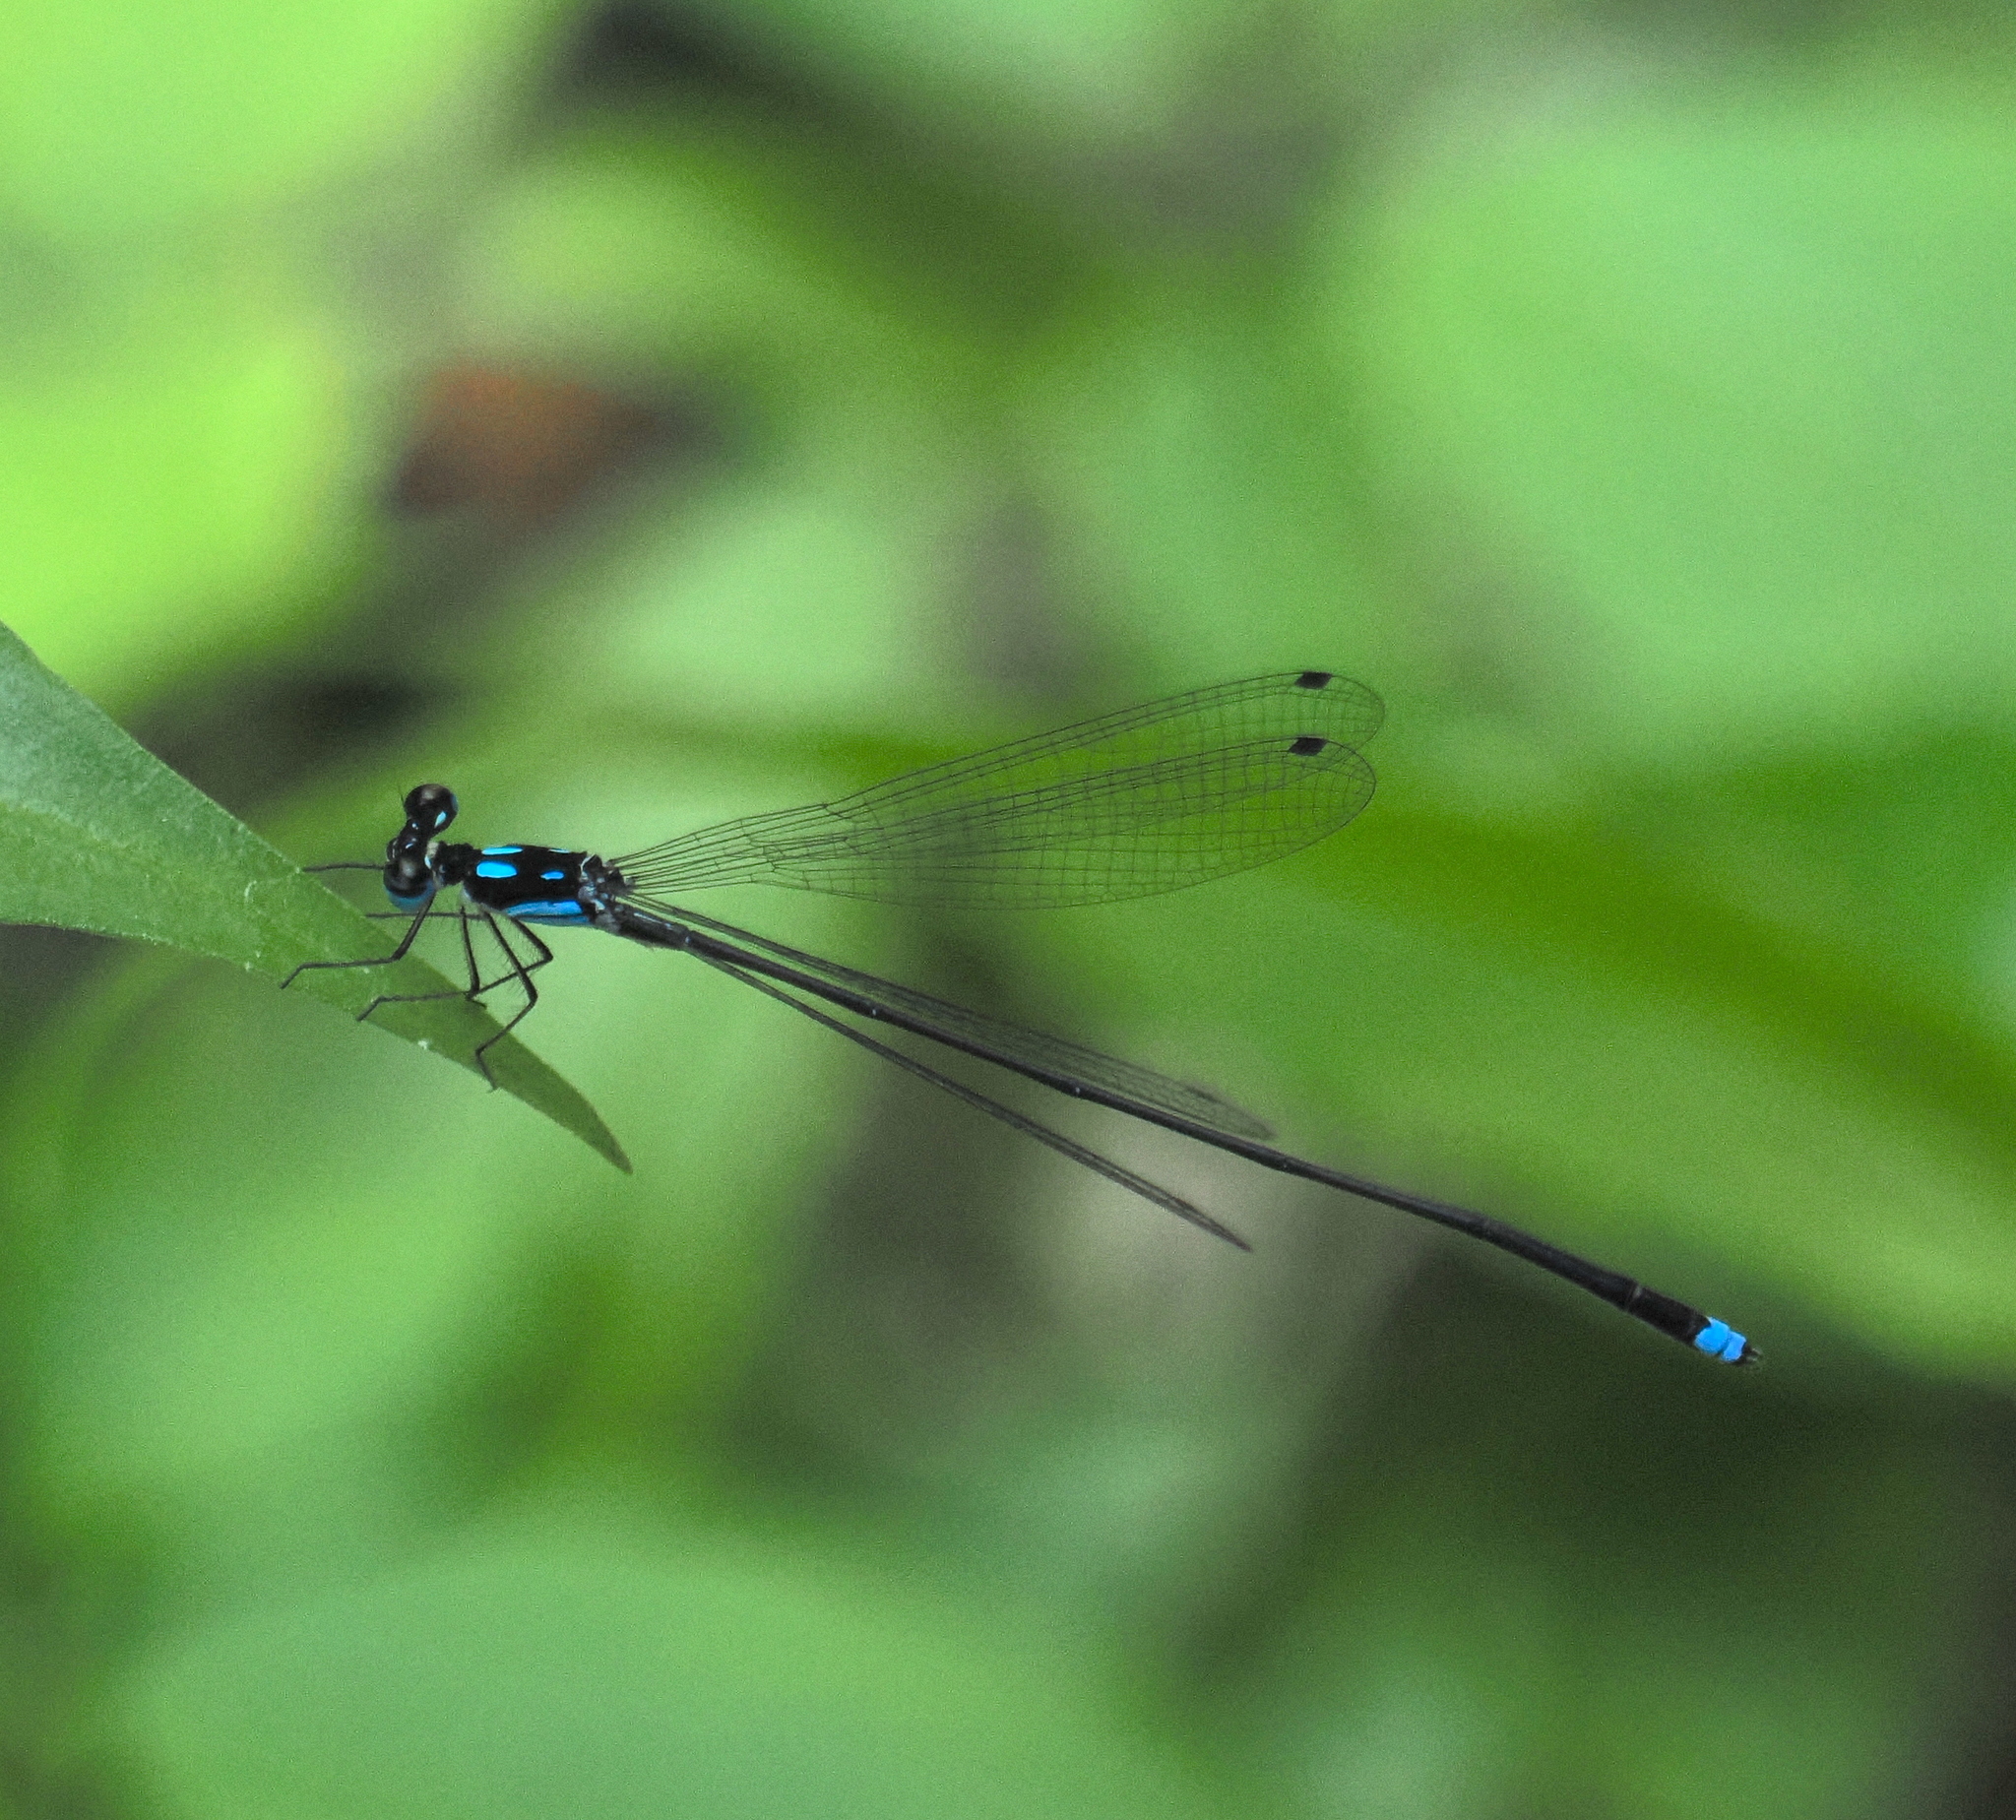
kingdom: Animalia
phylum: Arthropoda
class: Insecta
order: Odonata
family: Platycnemididae
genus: Coeliccia
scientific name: Coeliccia didyma
